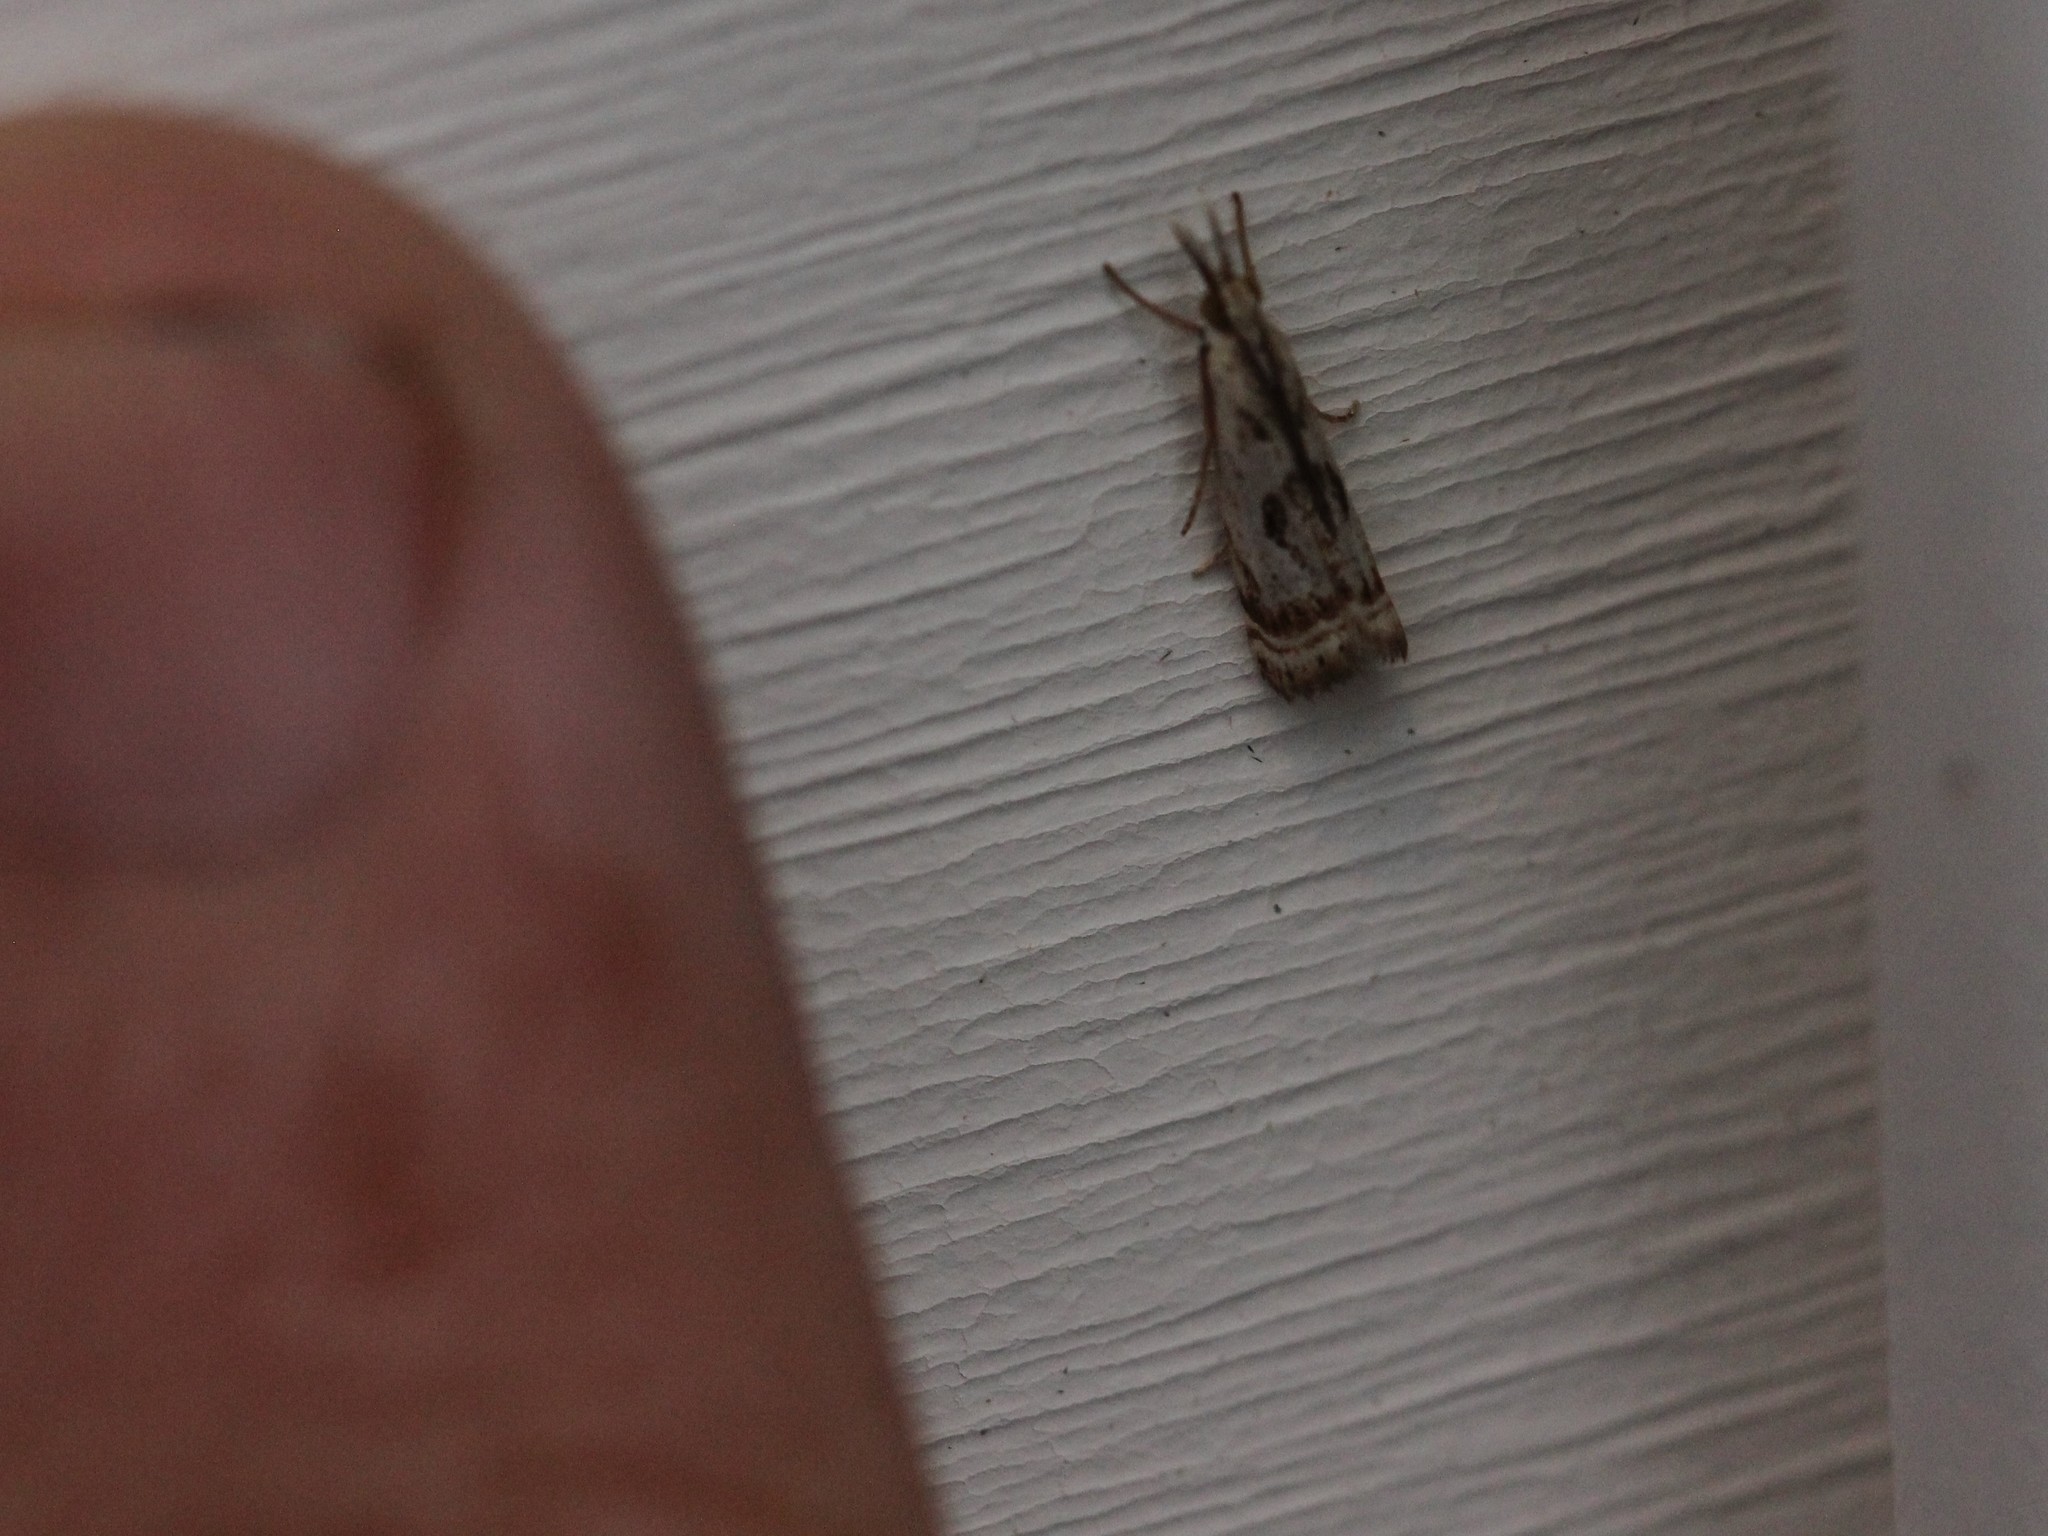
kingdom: Animalia
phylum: Arthropoda
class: Insecta
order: Lepidoptera
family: Crambidae
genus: Microcrambus
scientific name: Microcrambus elegans
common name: Elegant grass-veneer
